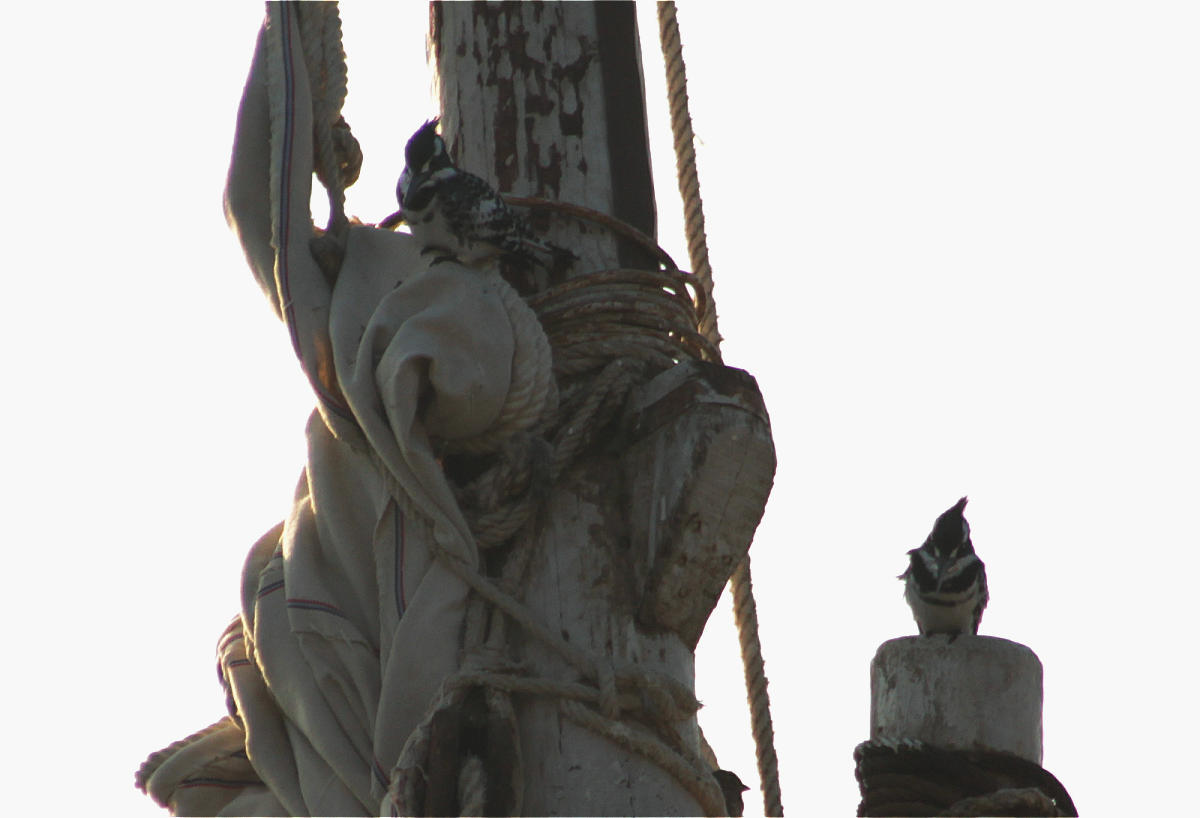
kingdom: Animalia
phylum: Chordata
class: Aves
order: Coraciiformes
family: Alcedinidae
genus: Ceryle
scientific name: Ceryle rudis
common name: Pied kingfisher
